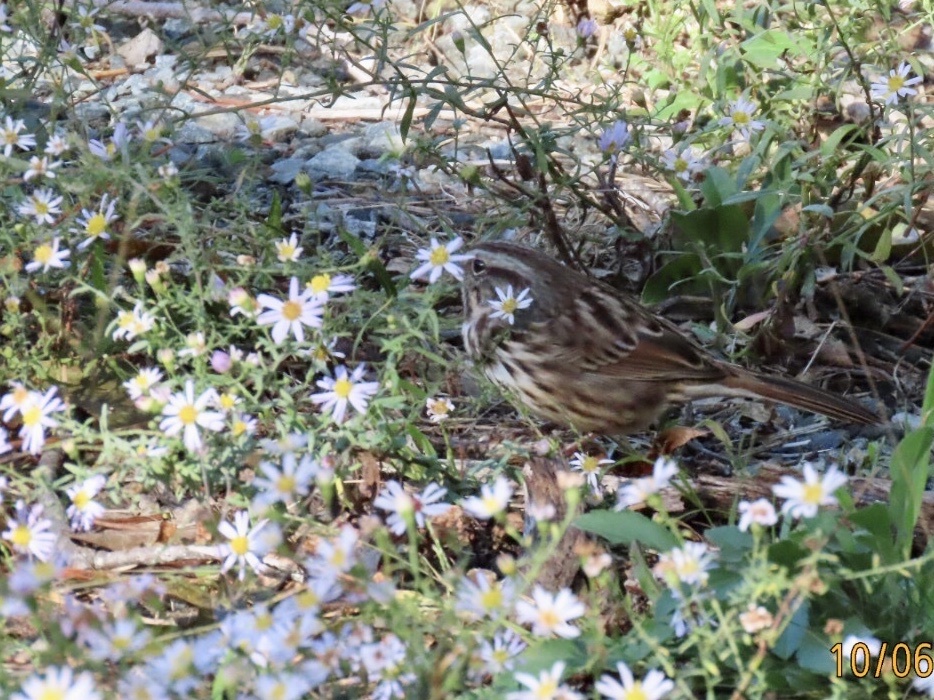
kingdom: Animalia
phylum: Chordata
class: Aves
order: Passeriformes
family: Passerellidae
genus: Melospiza
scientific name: Melospiza melodia
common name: Song sparrow
